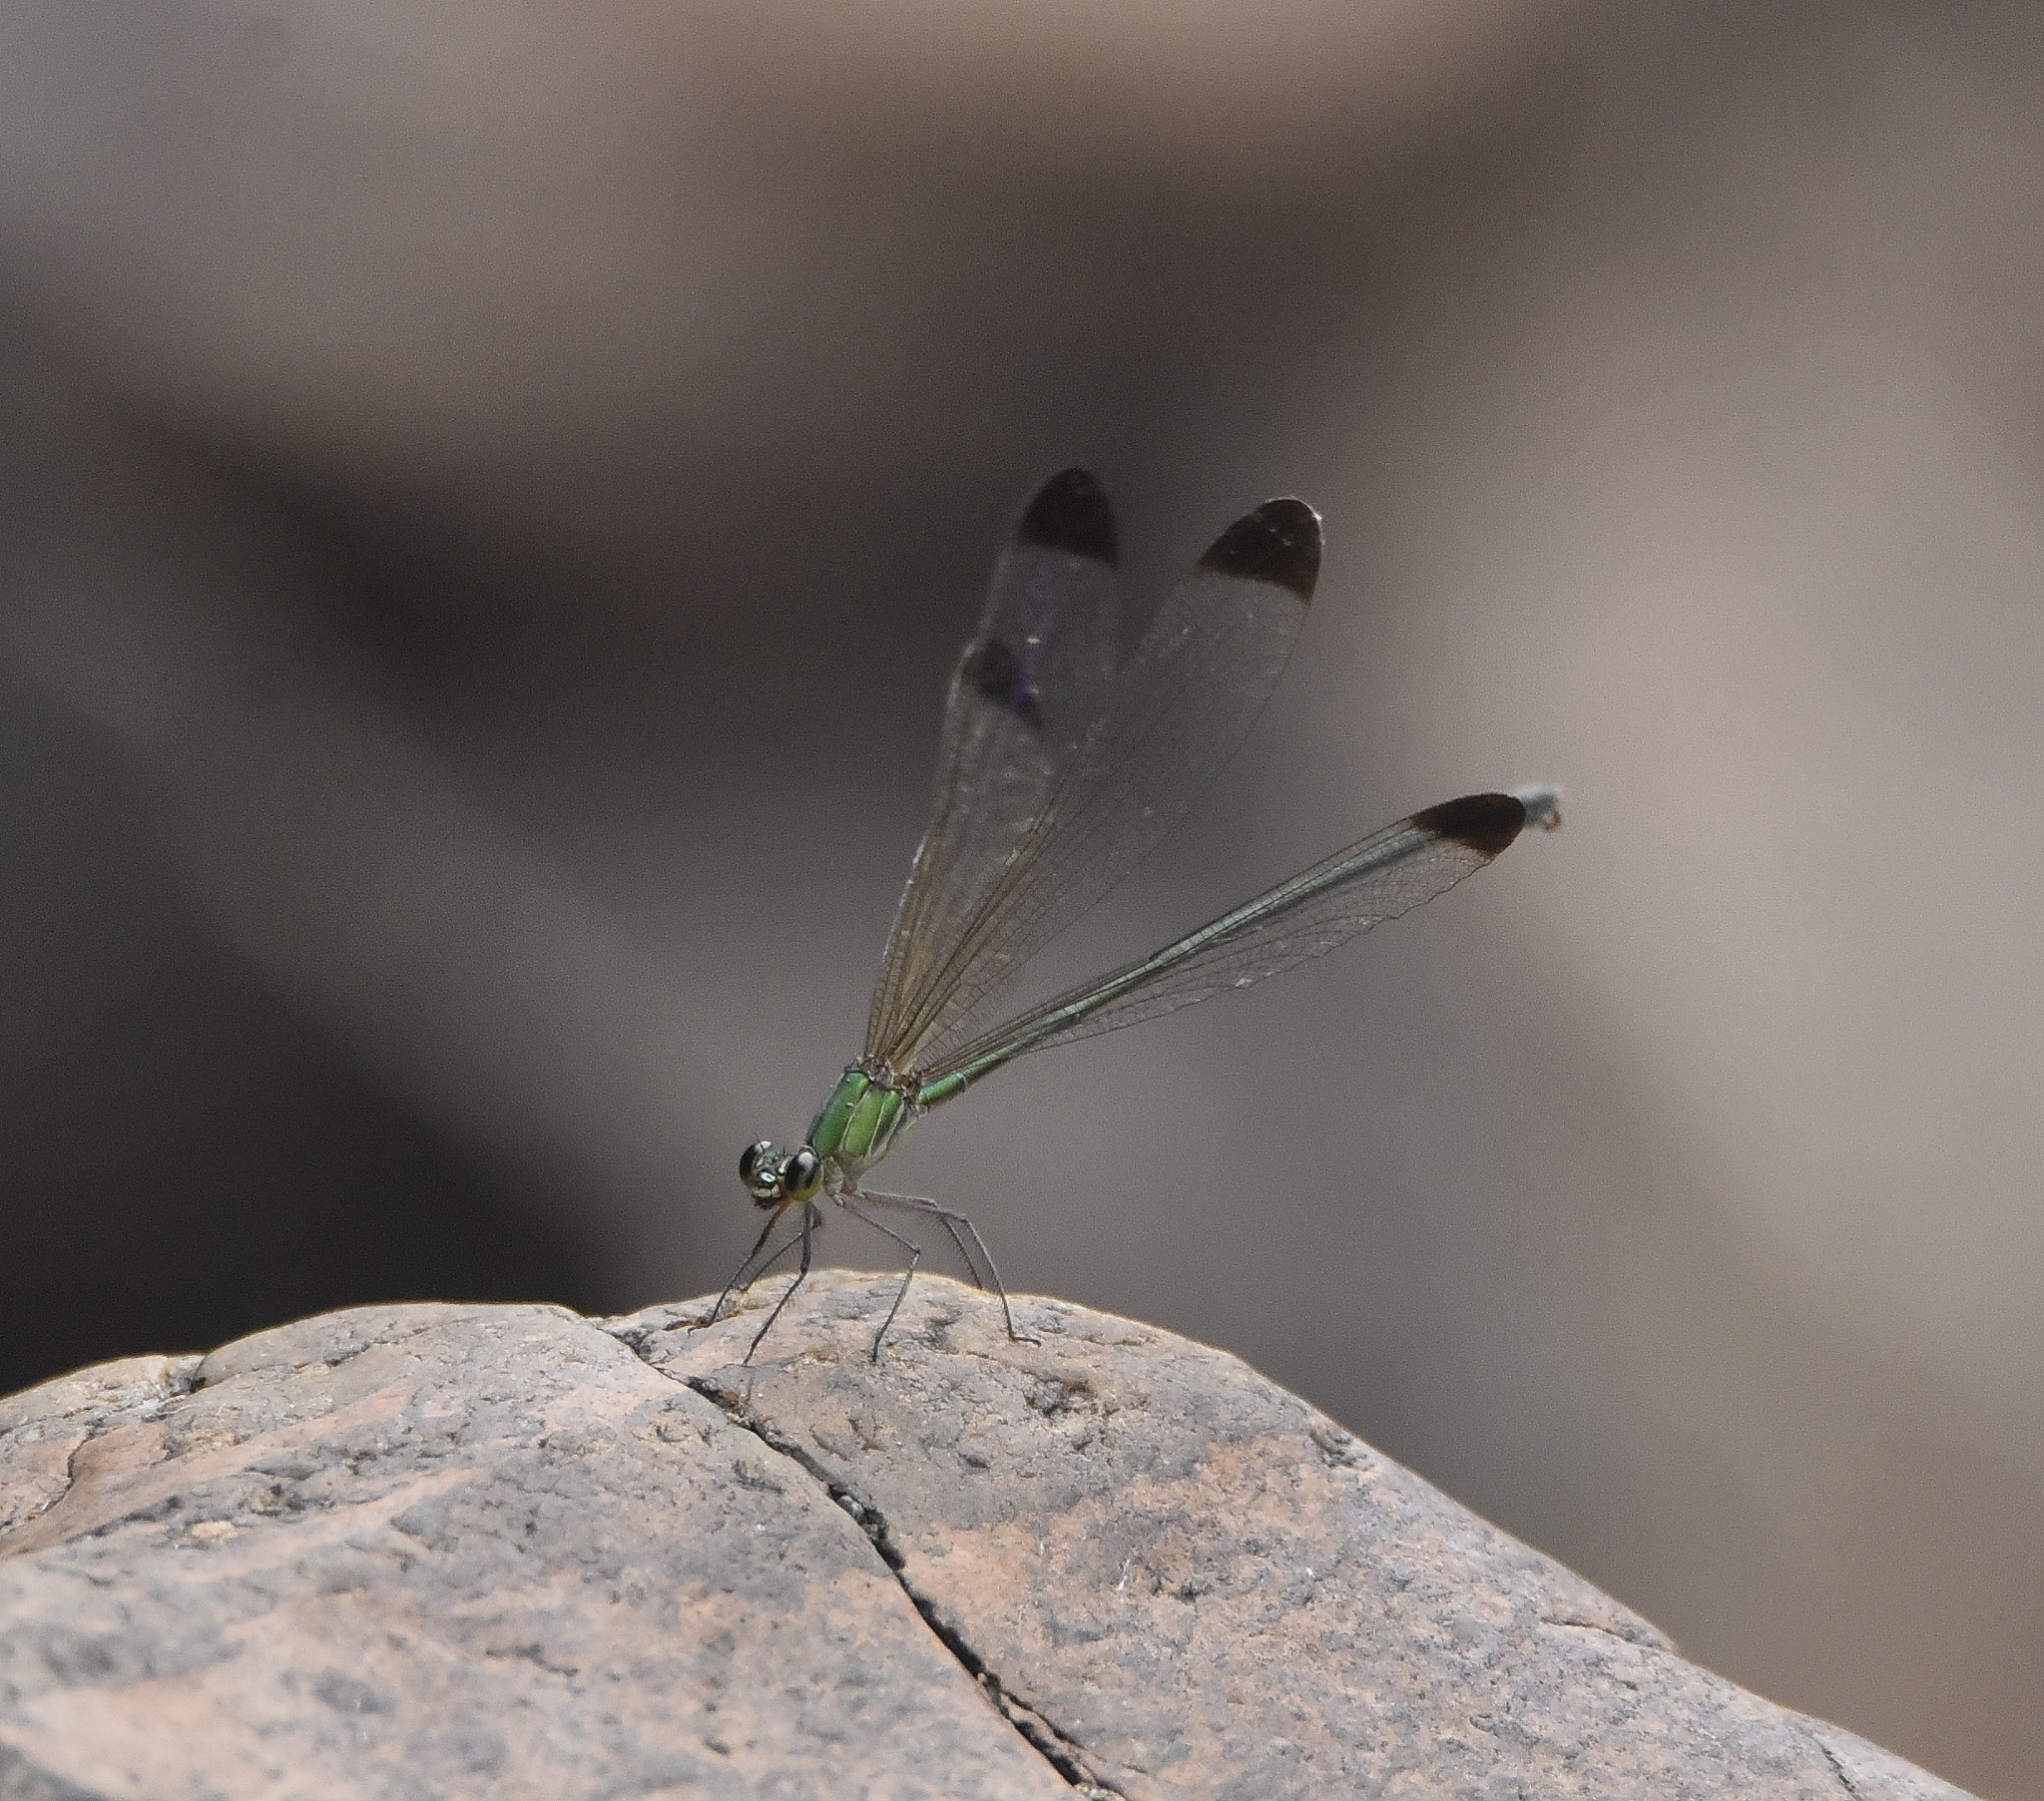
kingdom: Animalia
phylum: Arthropoda
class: Insecta
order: Odonata
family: Calopterygidae
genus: Vestalis
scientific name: Vestalis apicalis
